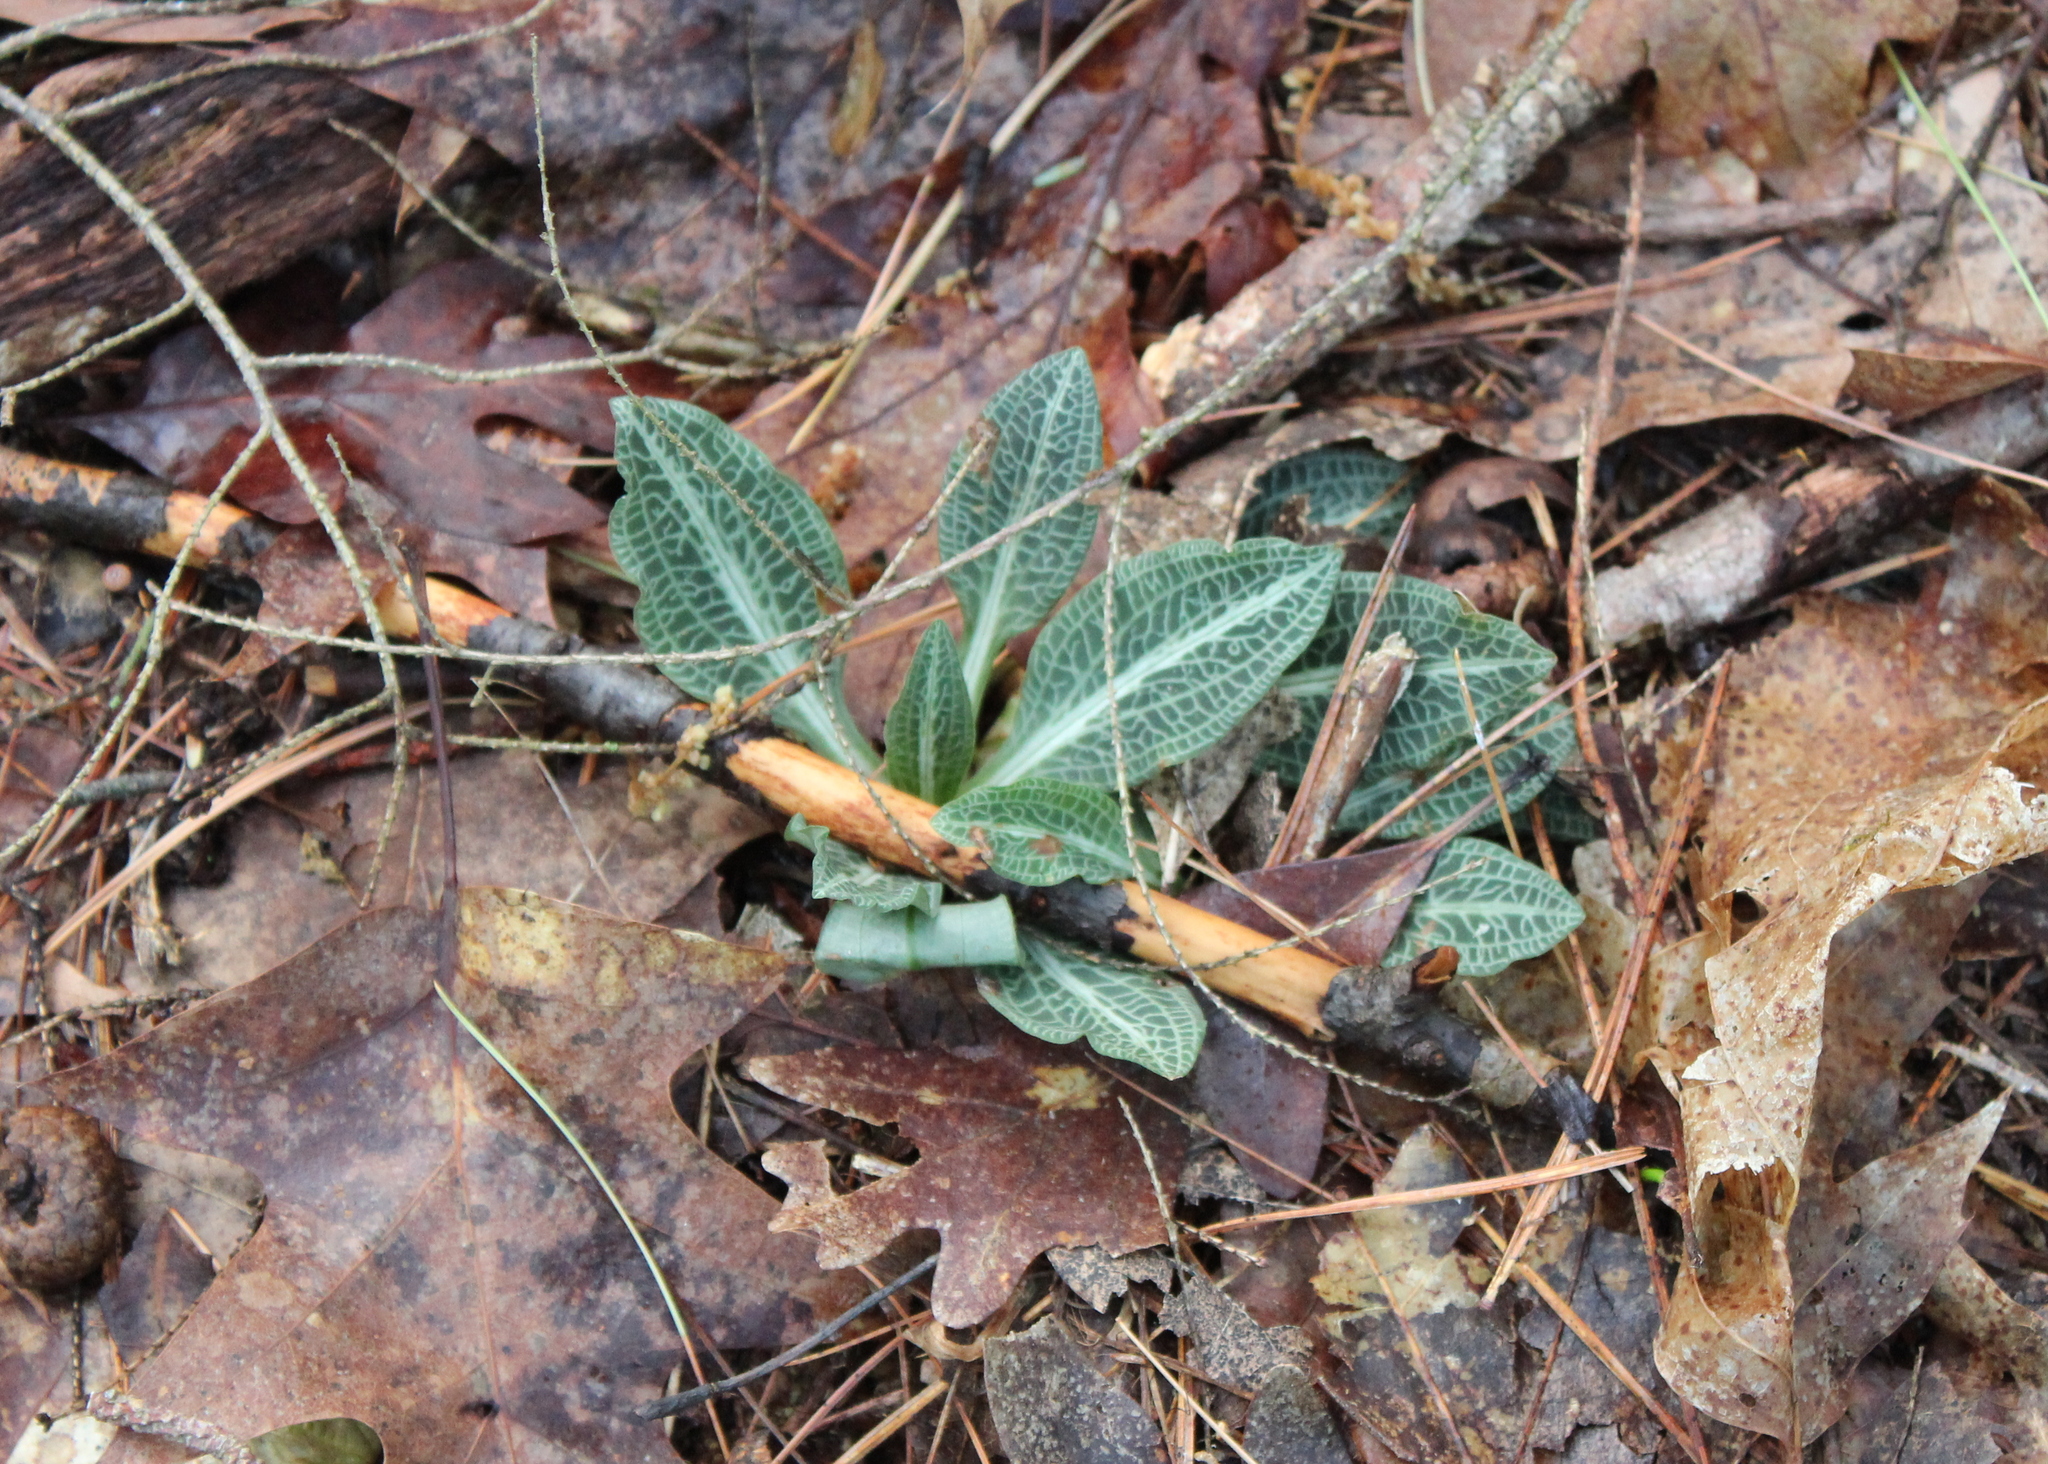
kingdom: Plantae
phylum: Tracheophyta
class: Liliopsida
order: Asparagales
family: Orchidaceae
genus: Goodyera
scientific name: Goodyera pubescens
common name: Downy rattlesnake-plantain
